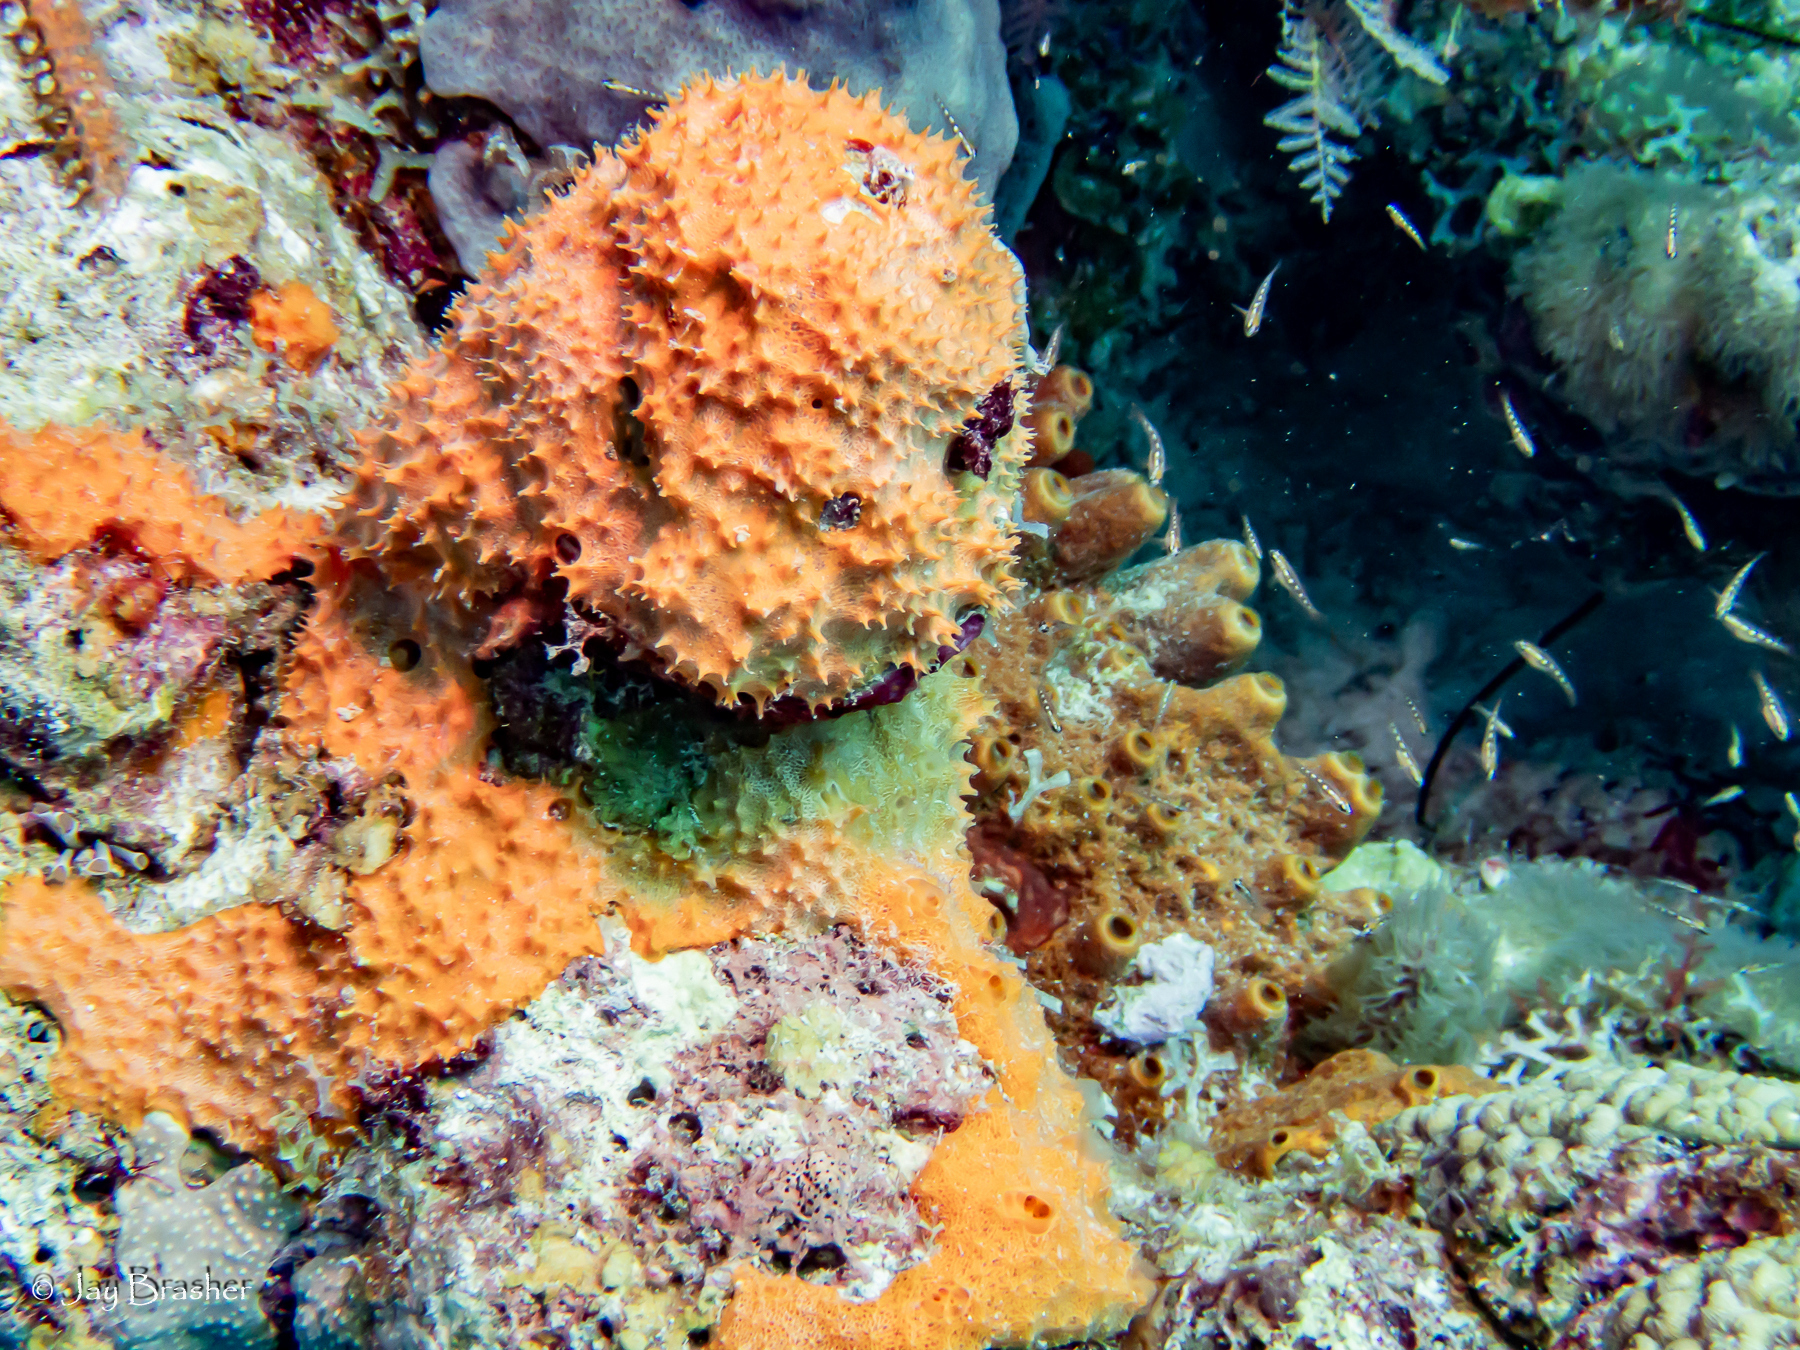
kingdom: Animalia
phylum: Porifera
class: Demospongiae
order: Scopalinida
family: Scopalinidae
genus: Scopalina
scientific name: Scopalina ruetzleri
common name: Orange lumpy encrusting sponge
